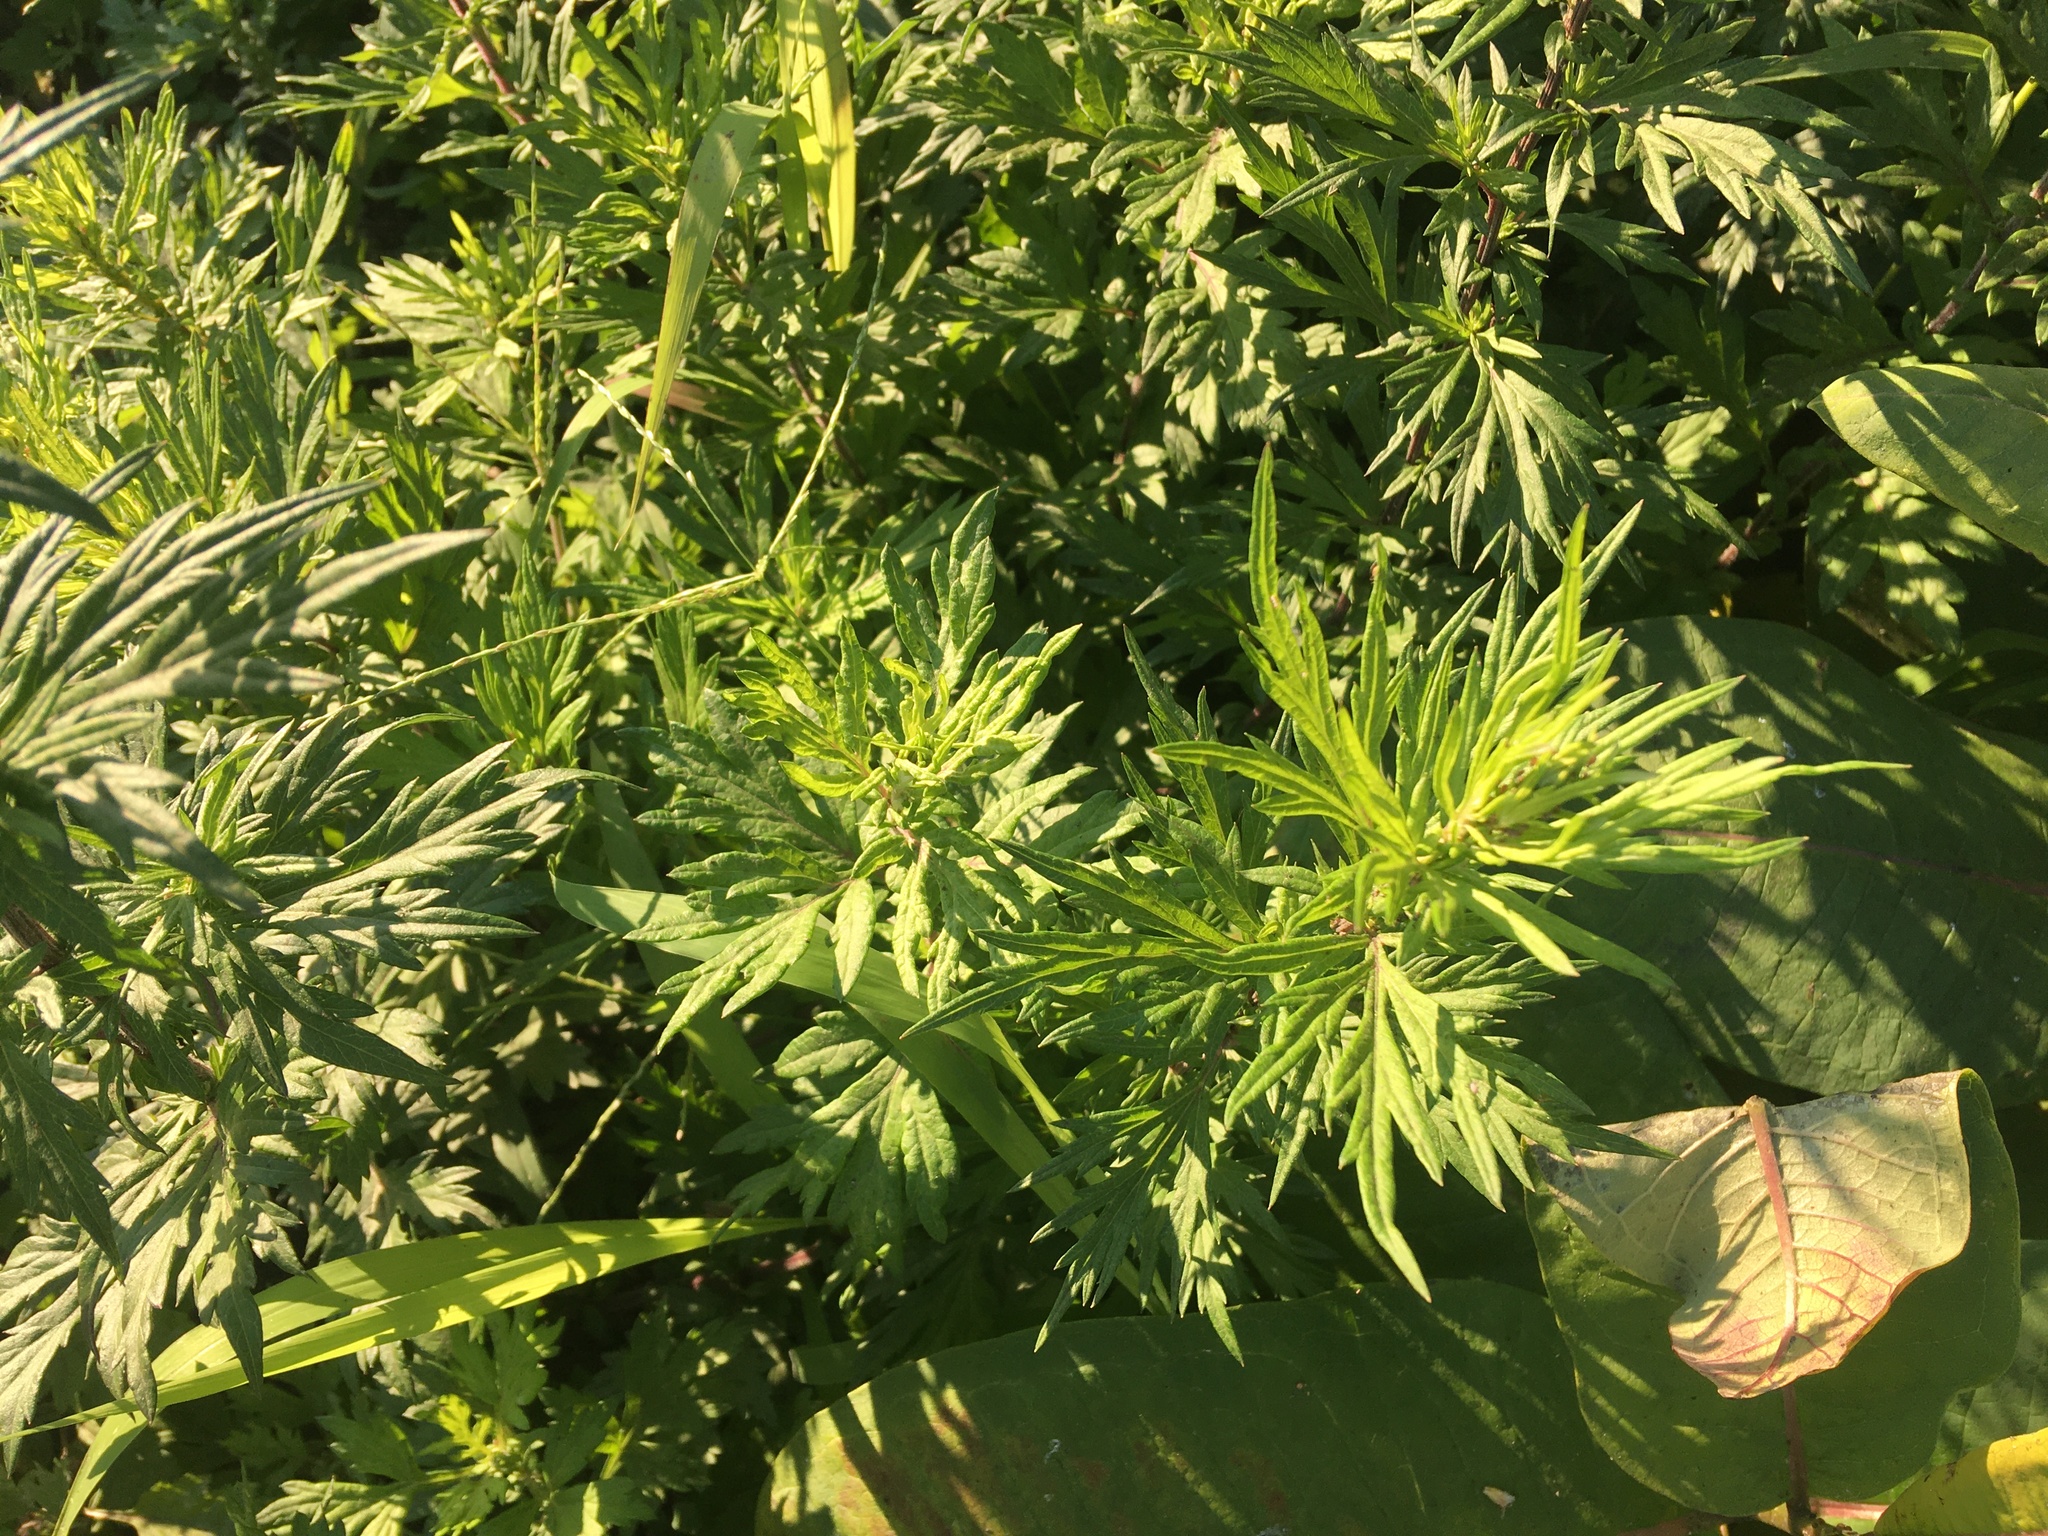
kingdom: Plantae
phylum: Tracheophyta
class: Magnoliopsida
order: Asterales
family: Asteraceae
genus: Artemisia
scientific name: Artemisia vulgaris
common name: Mugwort
